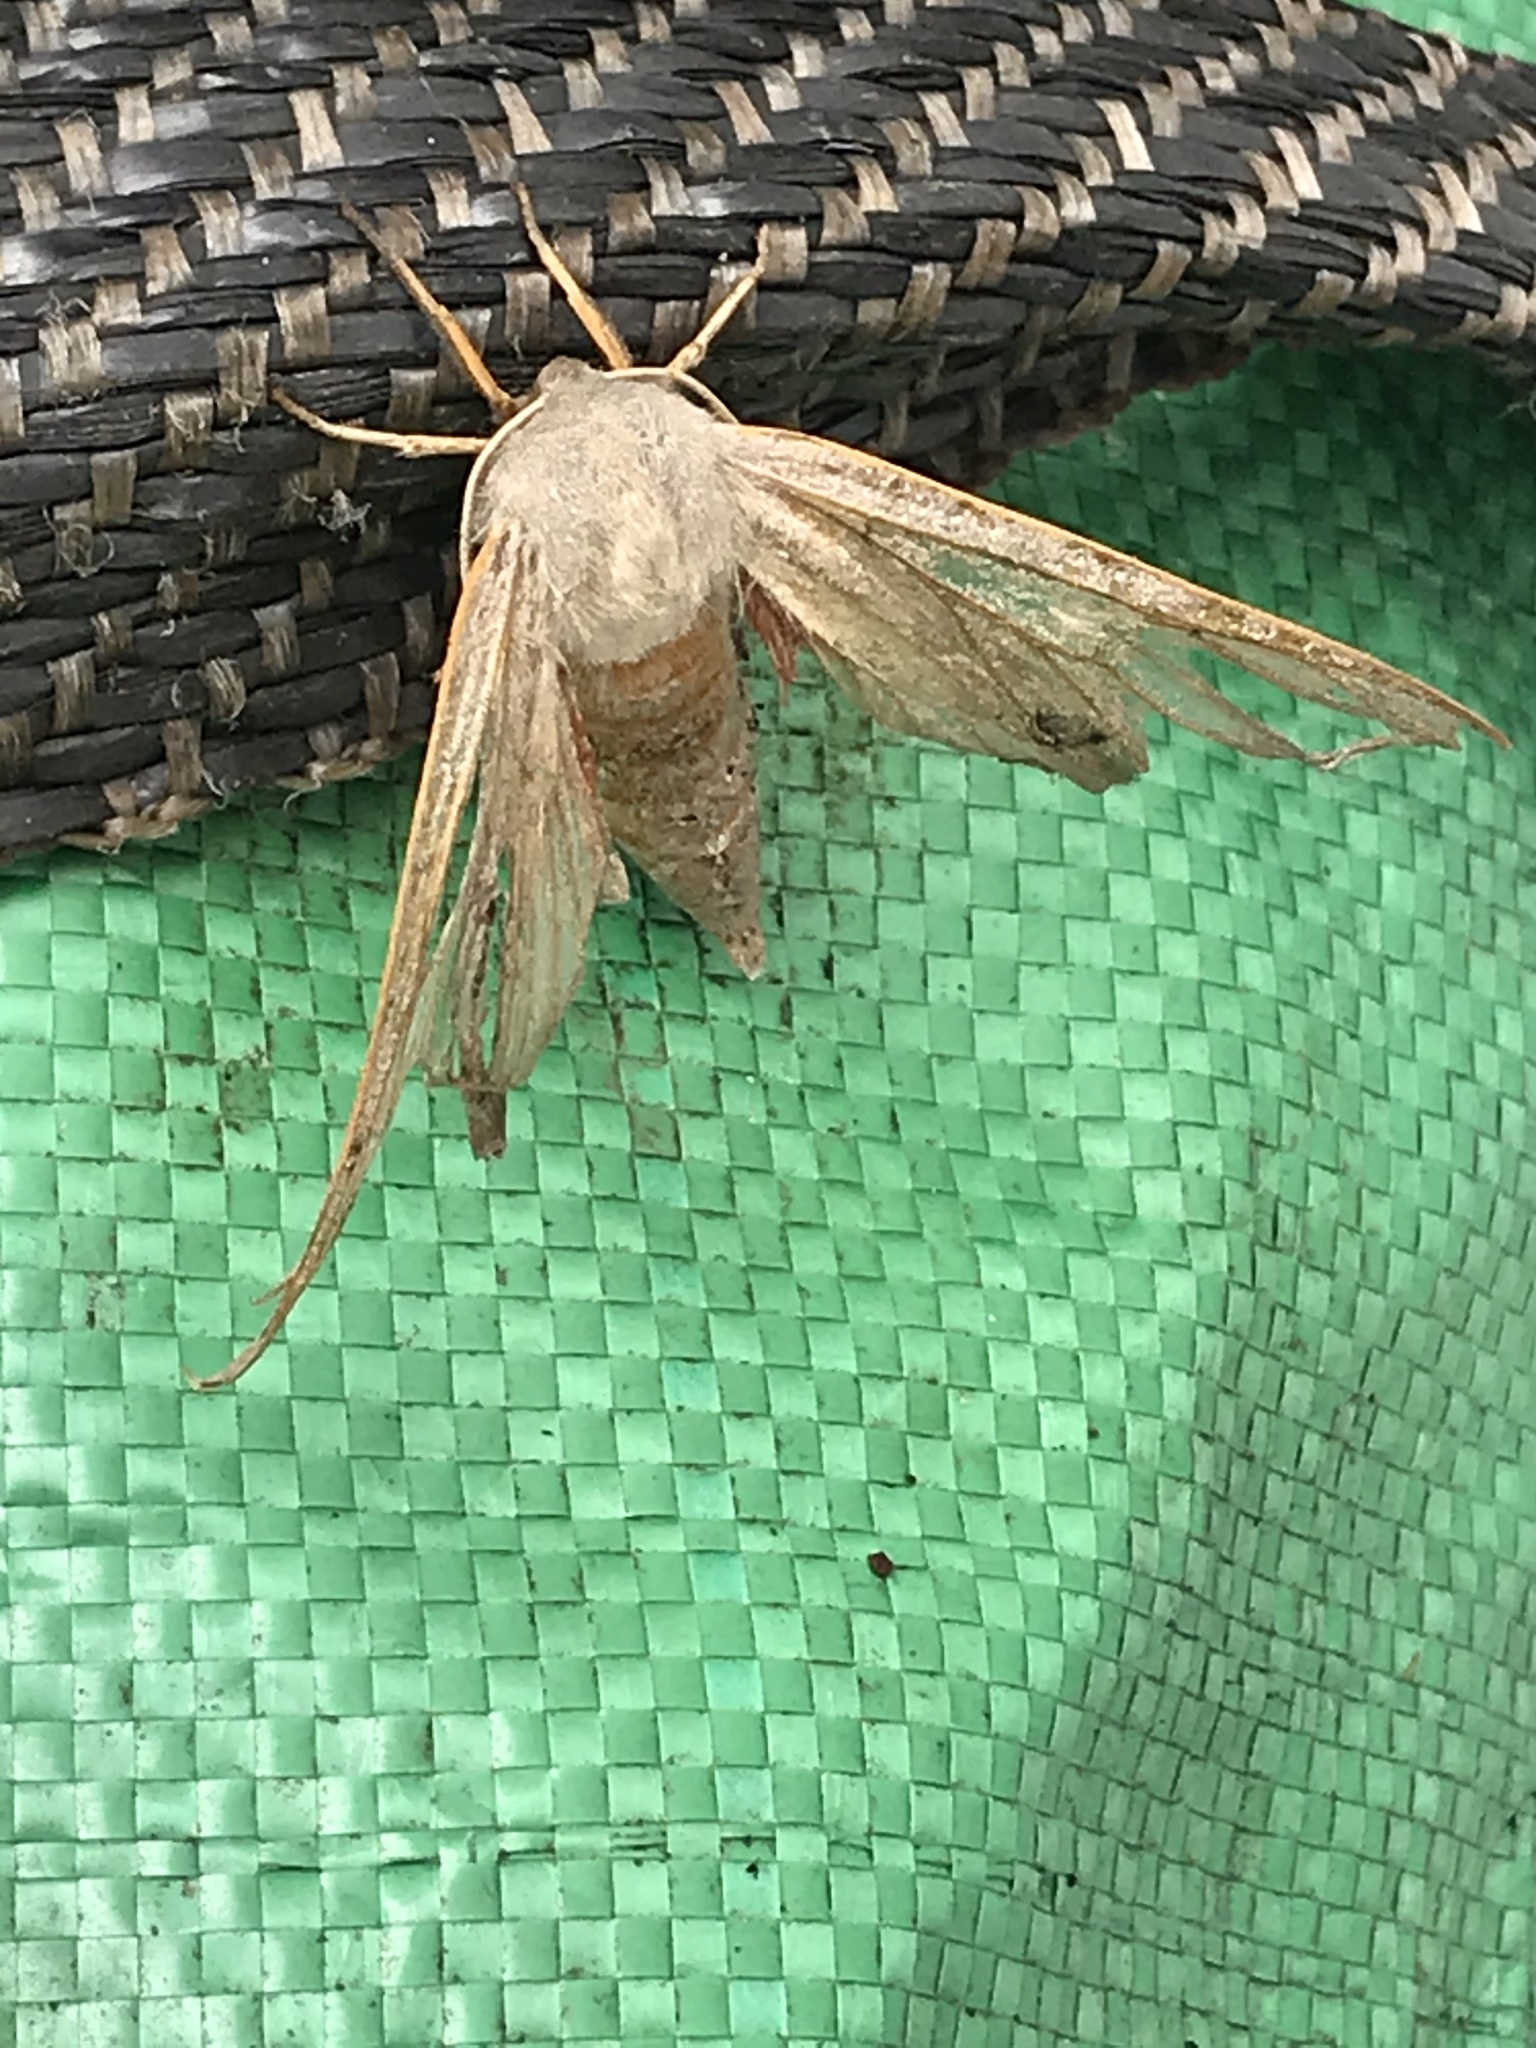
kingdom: Animalia
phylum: Arthropoda
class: Insecta
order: Lepidoptera
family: Sphingidae
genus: Laothoe
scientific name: Laothoe populi
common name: Poplar hawk-moth
